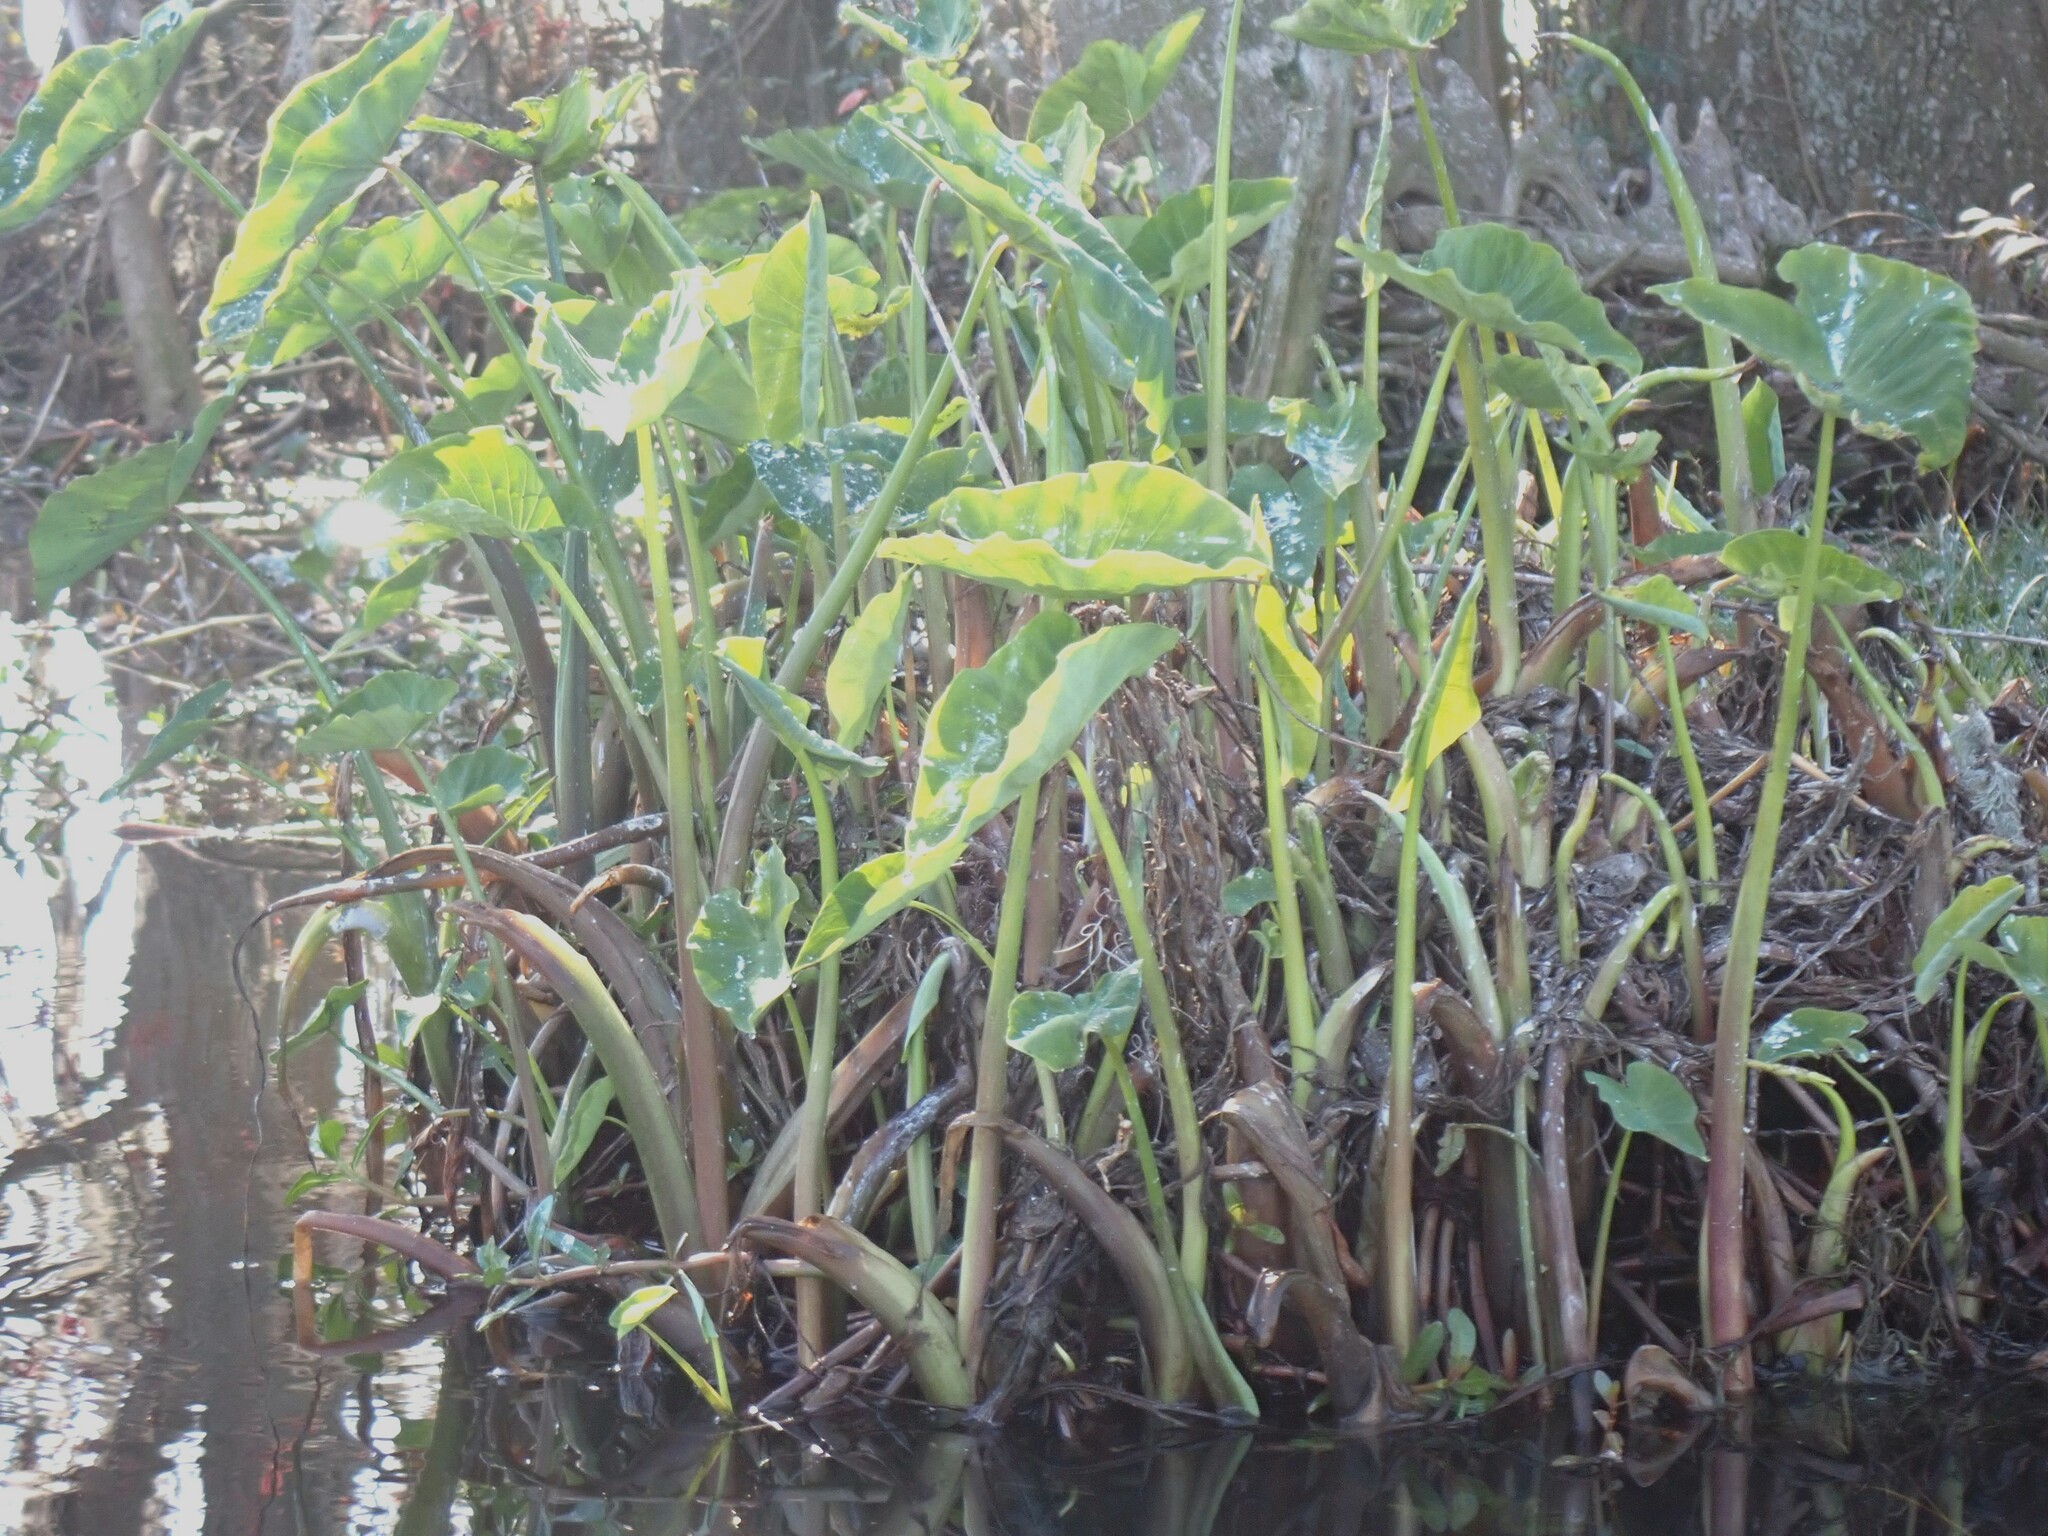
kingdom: Plantae
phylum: Tracheophyta
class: Liliopsida
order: Alismatales
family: Araceae
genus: Colocasia
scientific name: Colocasia esculenta
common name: Taro
